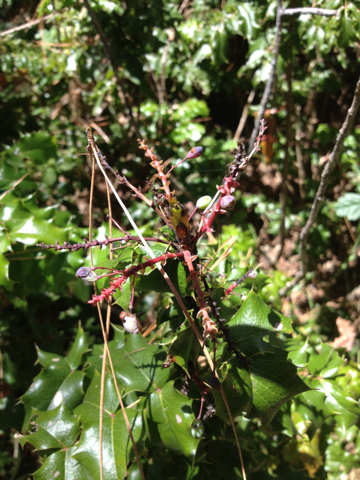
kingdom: Plantae
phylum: Tracheophyta
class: Magnoliopsida
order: Ranunculales
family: Berberidaceae
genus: Mahonia
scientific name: Mahonia
